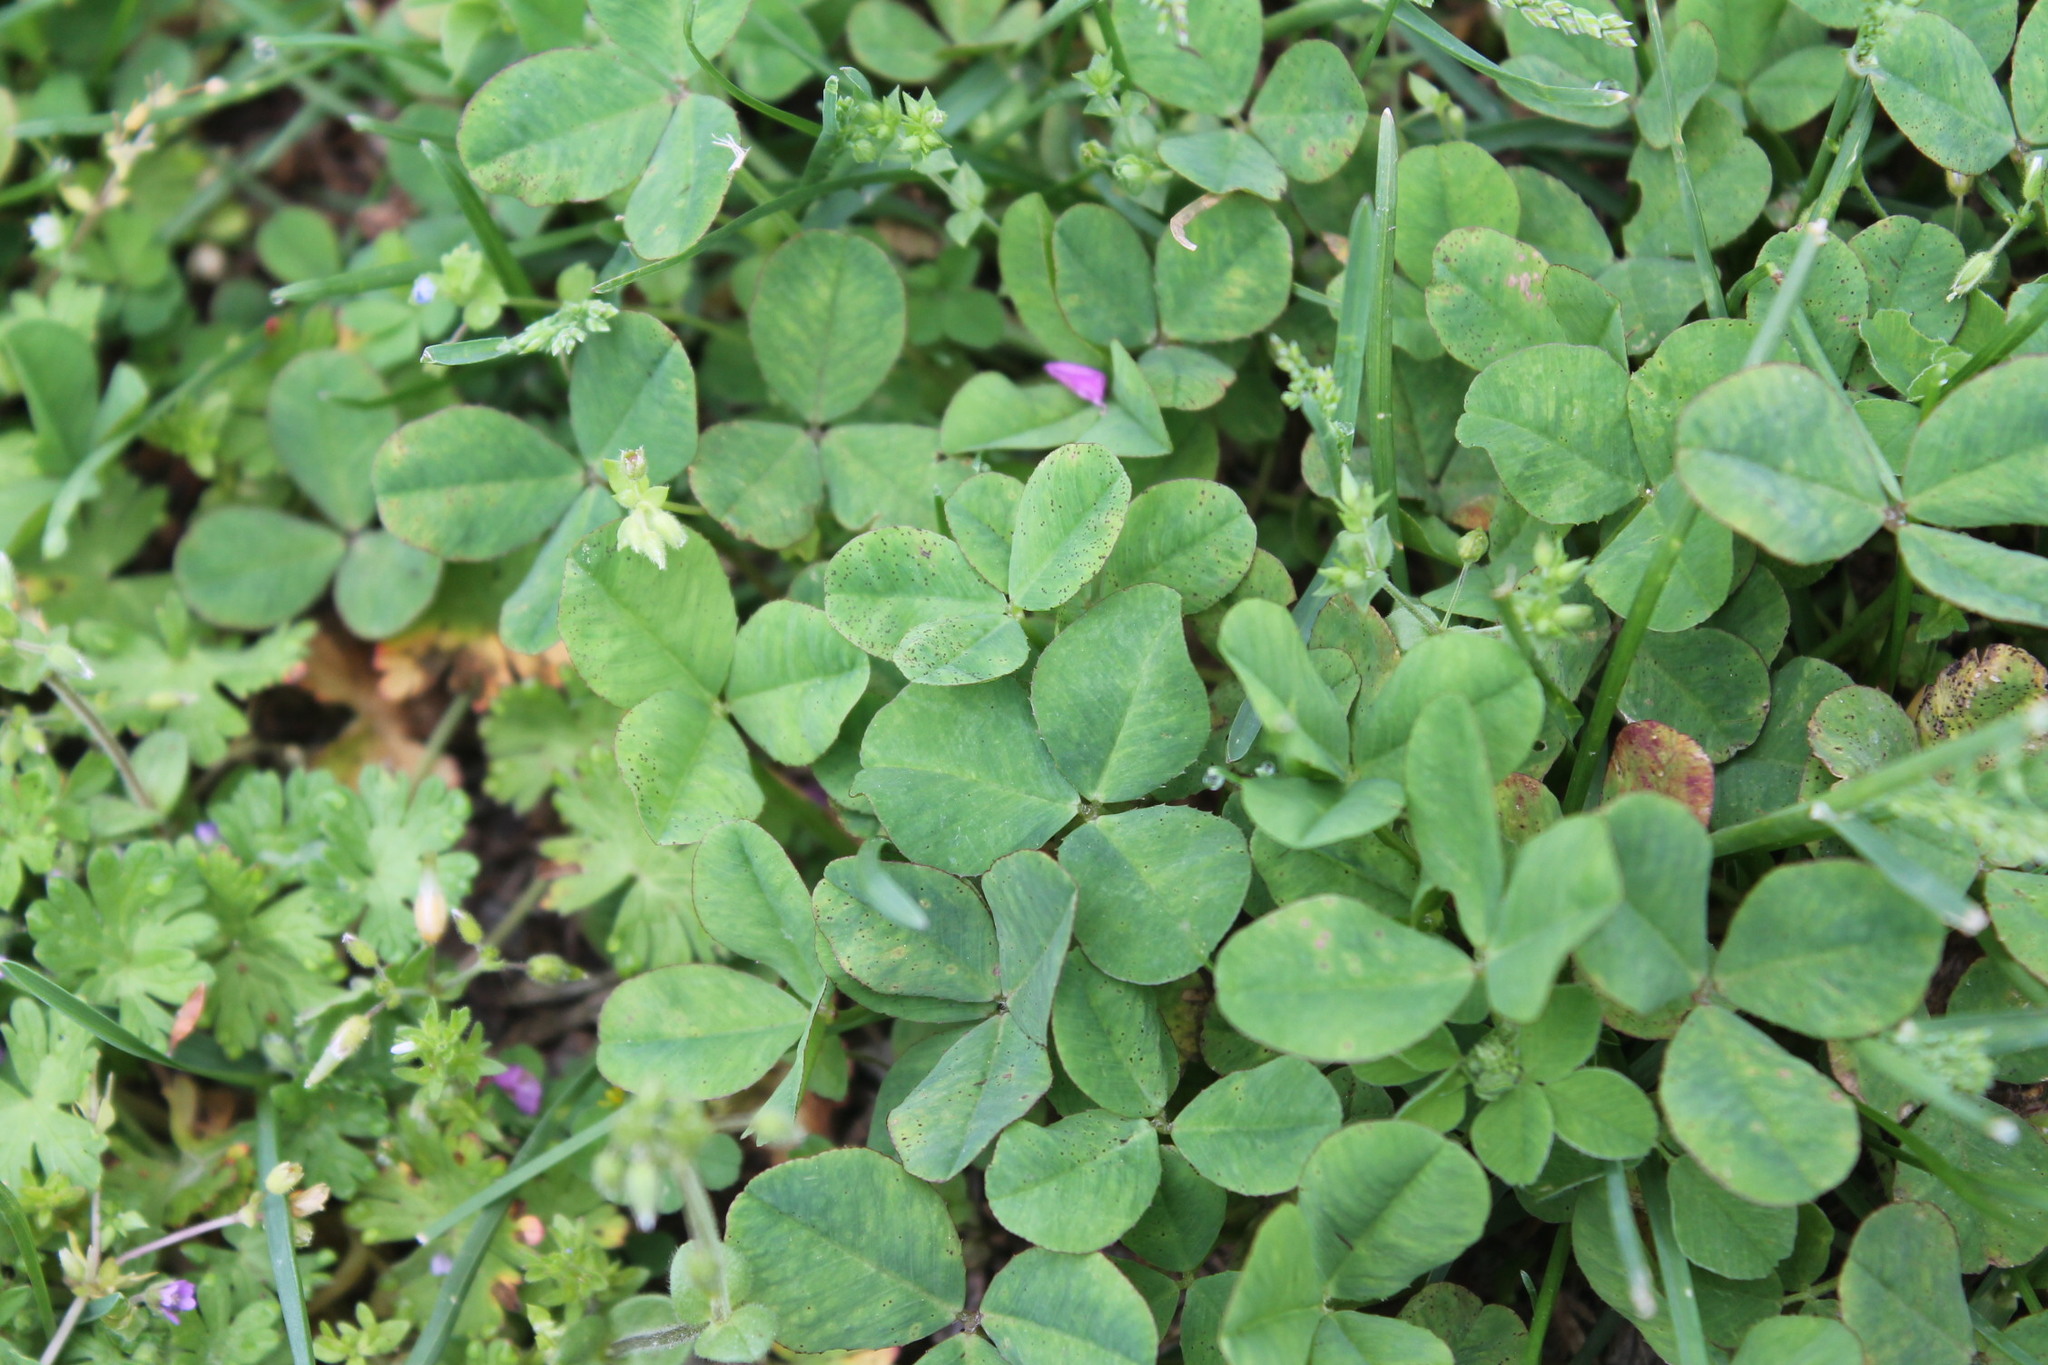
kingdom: Plantae
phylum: Tracheophyta
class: Magnoliopsida
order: Fabales
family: Fabaceae
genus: Trifolium
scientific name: Trifolium repens
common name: White clover
